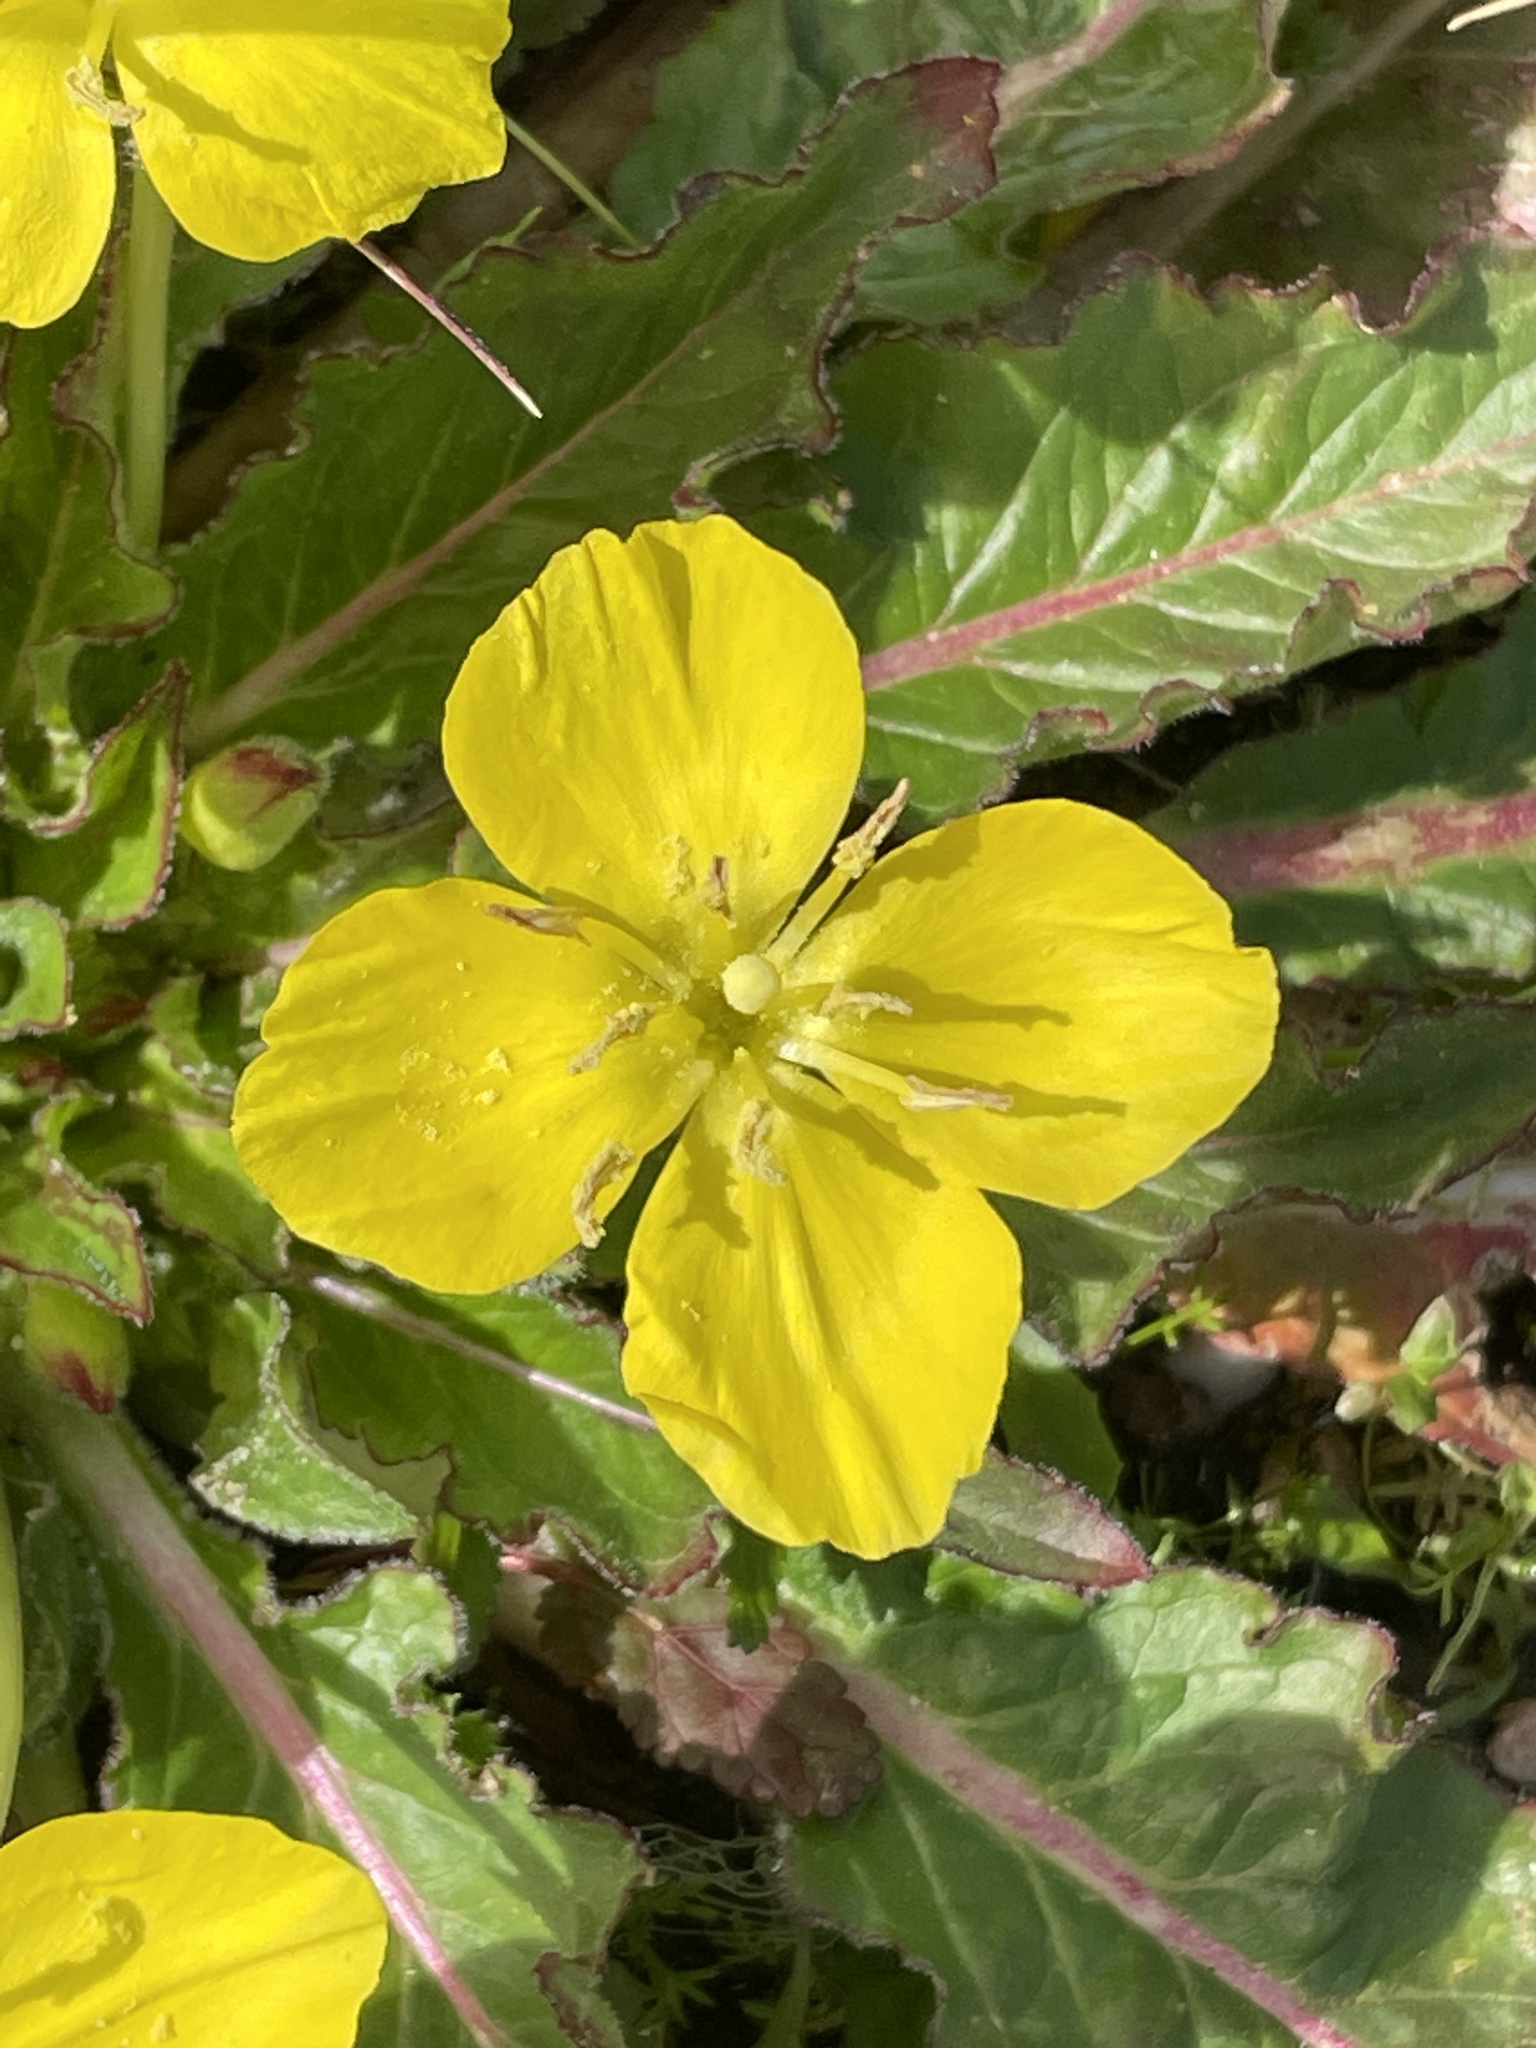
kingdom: Plantae
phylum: Tracheophyta
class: Magnoliopsida
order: Myrtales
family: Onagraceae
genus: Taraxia
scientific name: Taraxia ovata
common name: Goldeneggs
